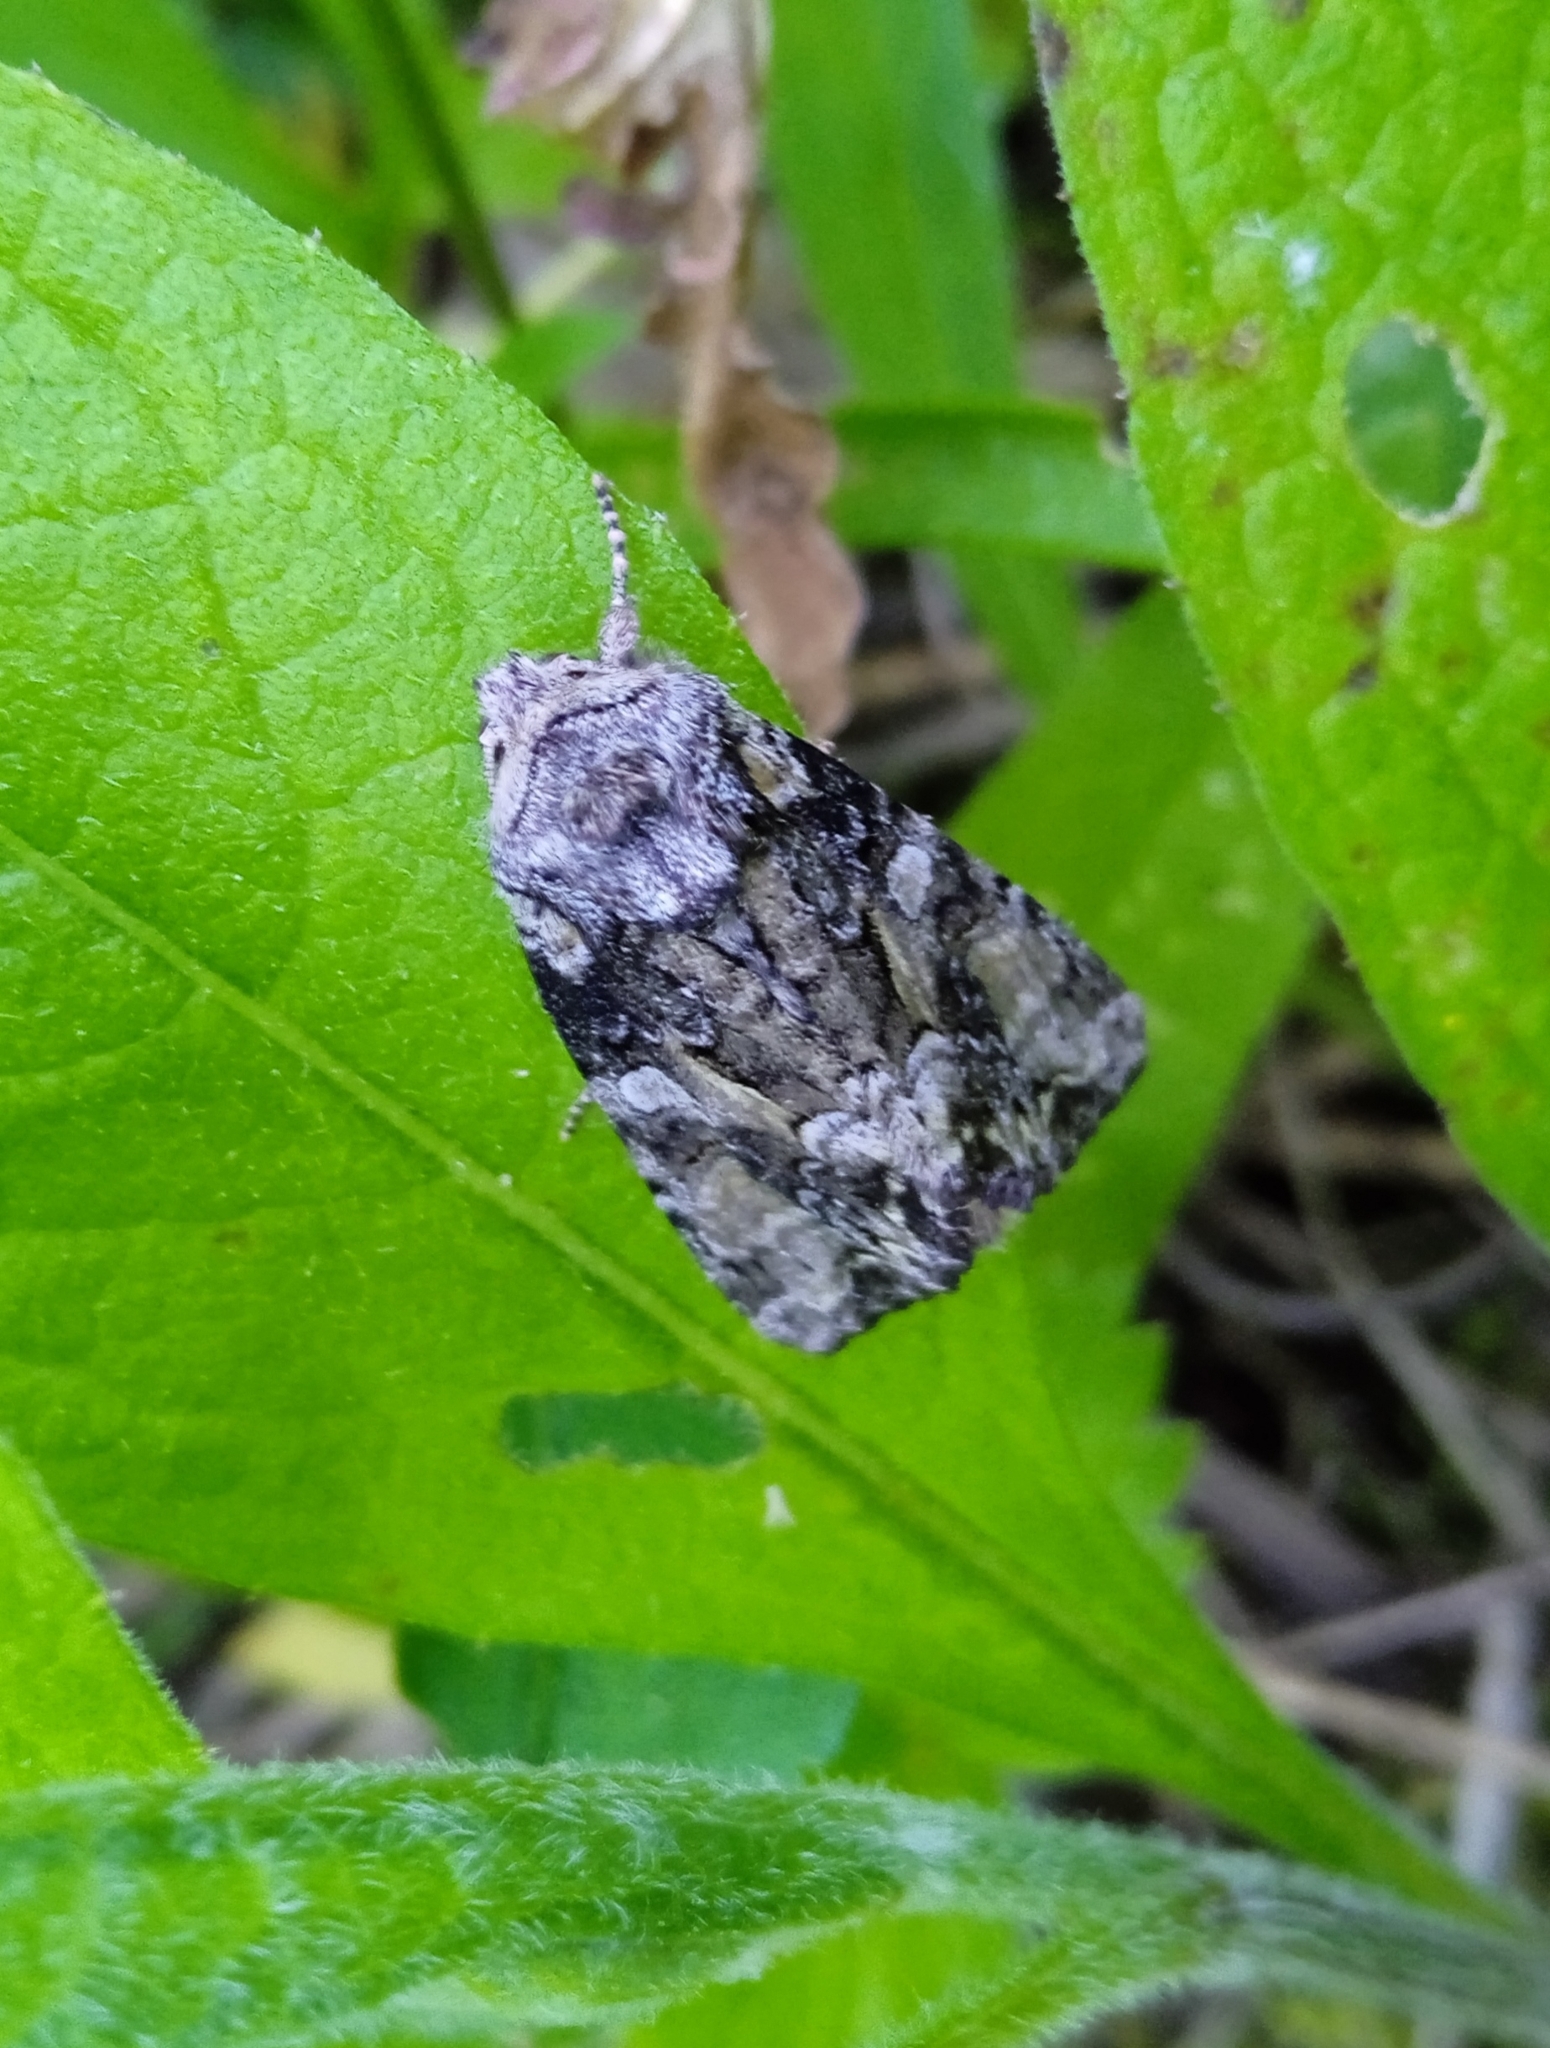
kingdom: Animalia
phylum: Arthropoda
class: Insecta
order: Lepidoptera
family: Noctuidae
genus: Lacanobia
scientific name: Lacanobia contigua
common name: Beautiful brocade
